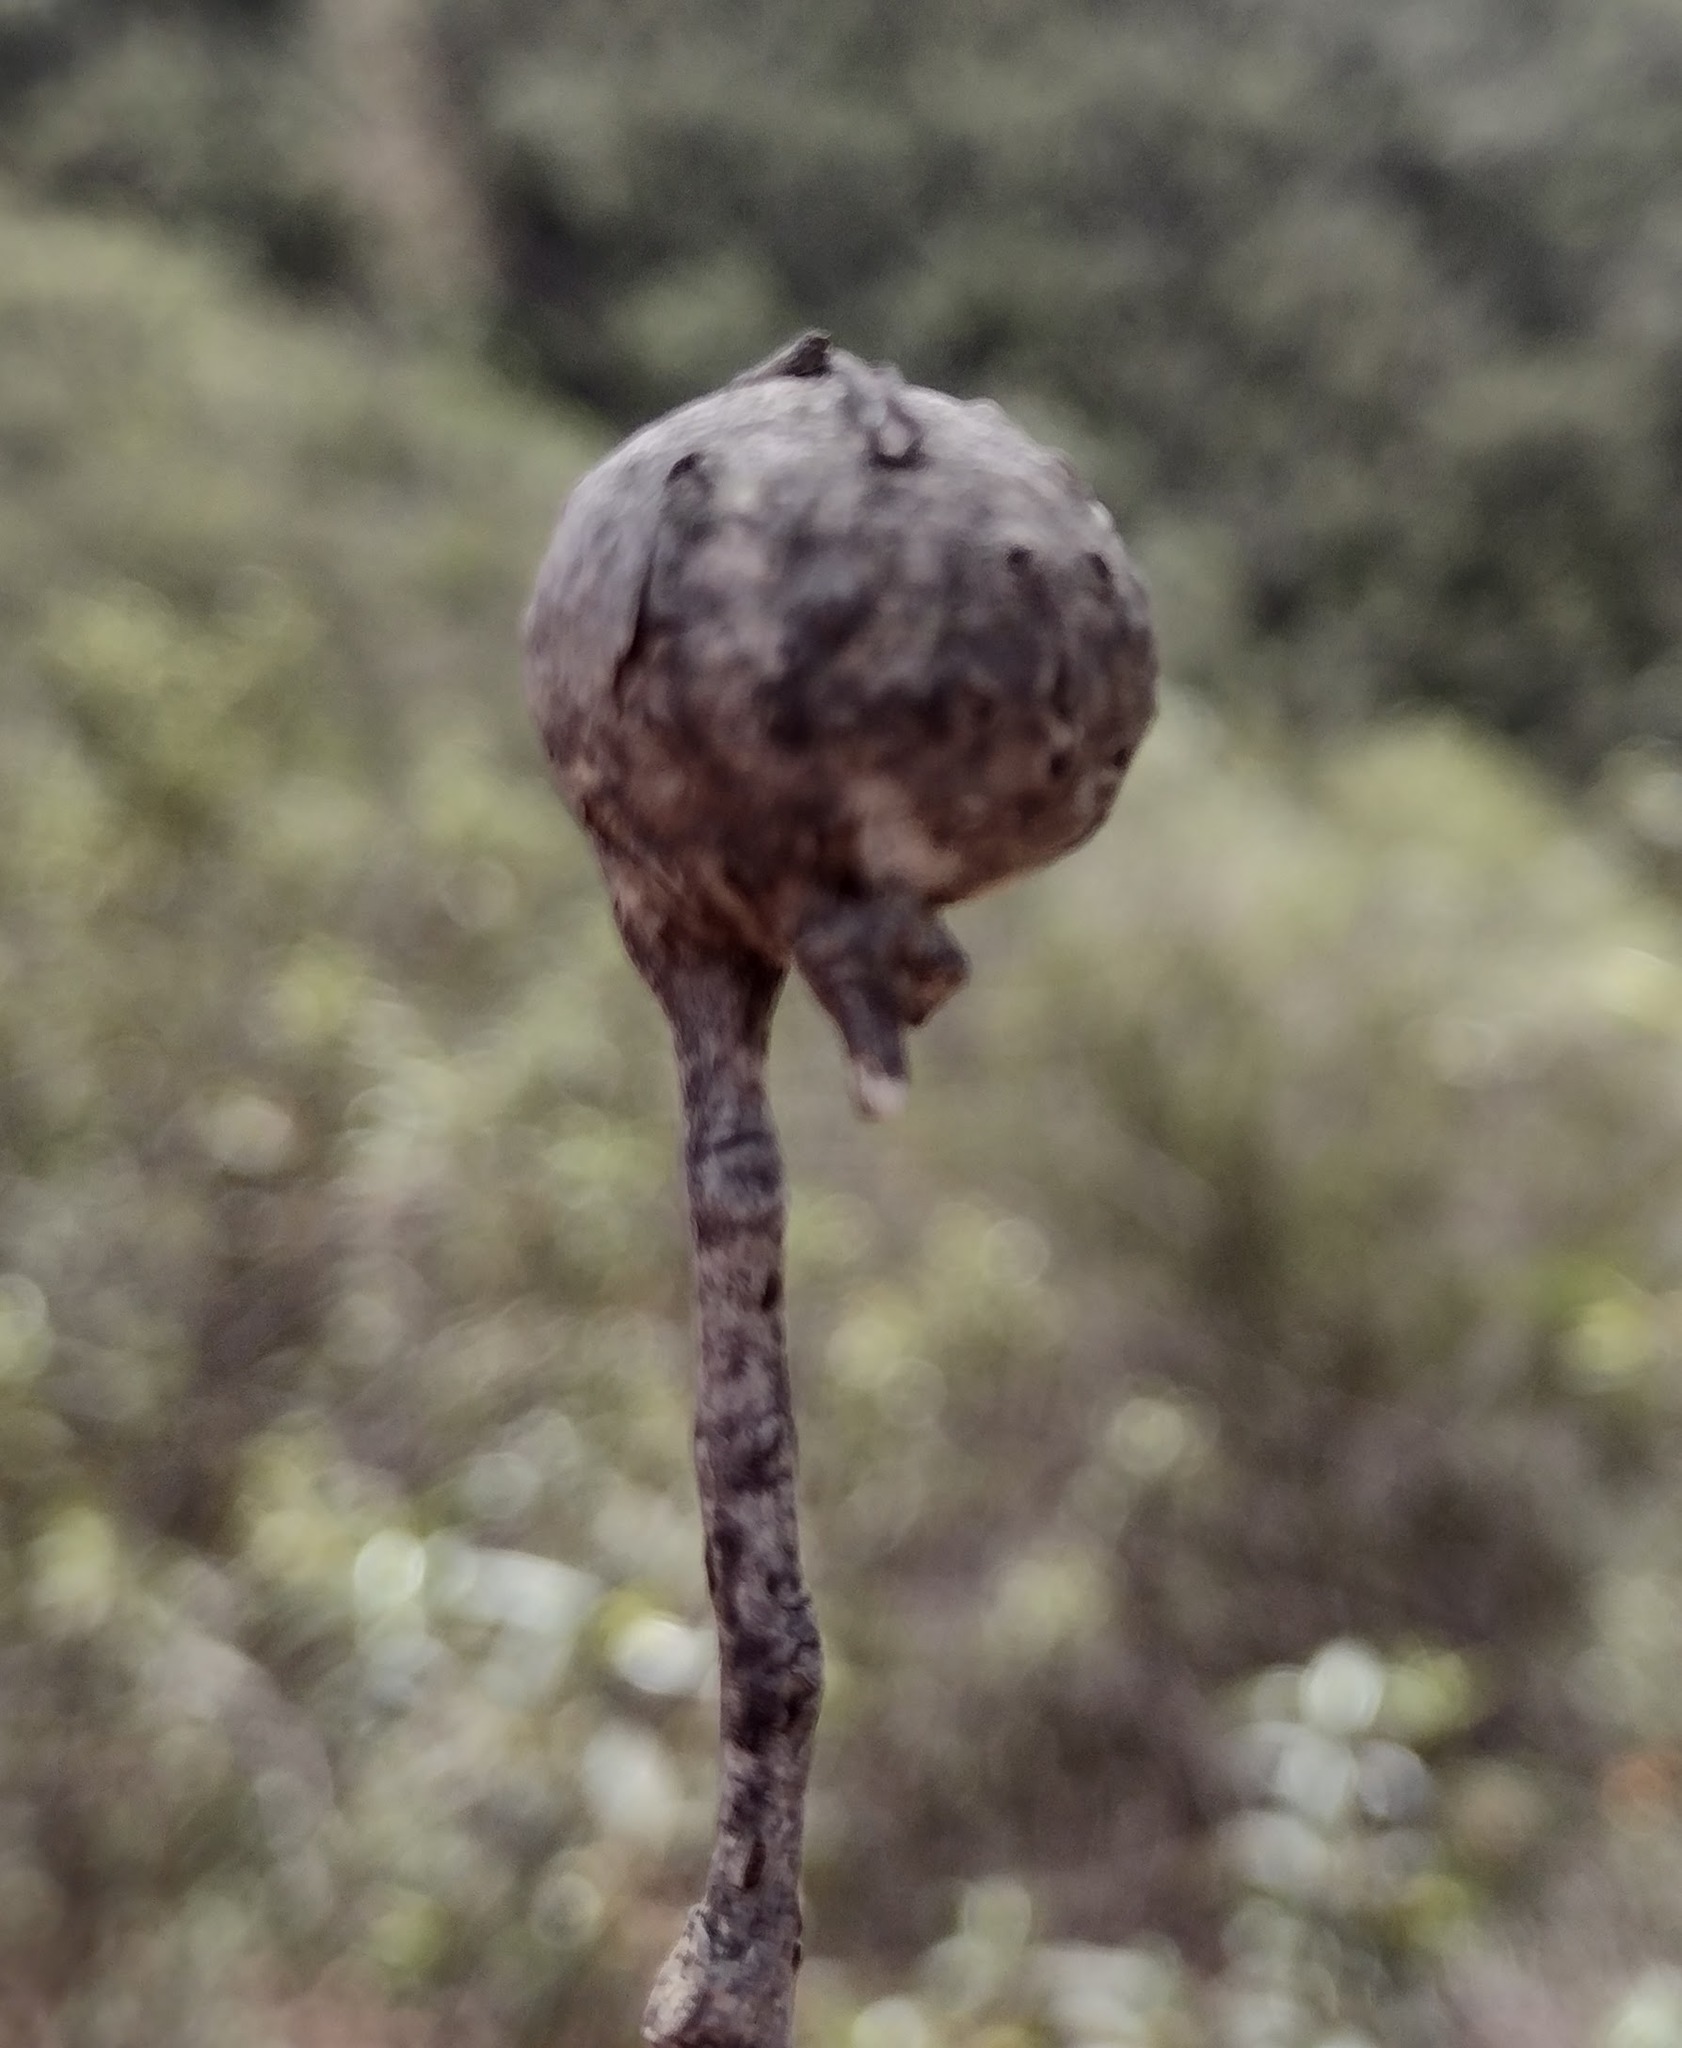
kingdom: Animalia
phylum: Arthropoda
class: Insecta
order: Hymenoptera
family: Cynipidae
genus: Synophrus
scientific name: Synophrus
